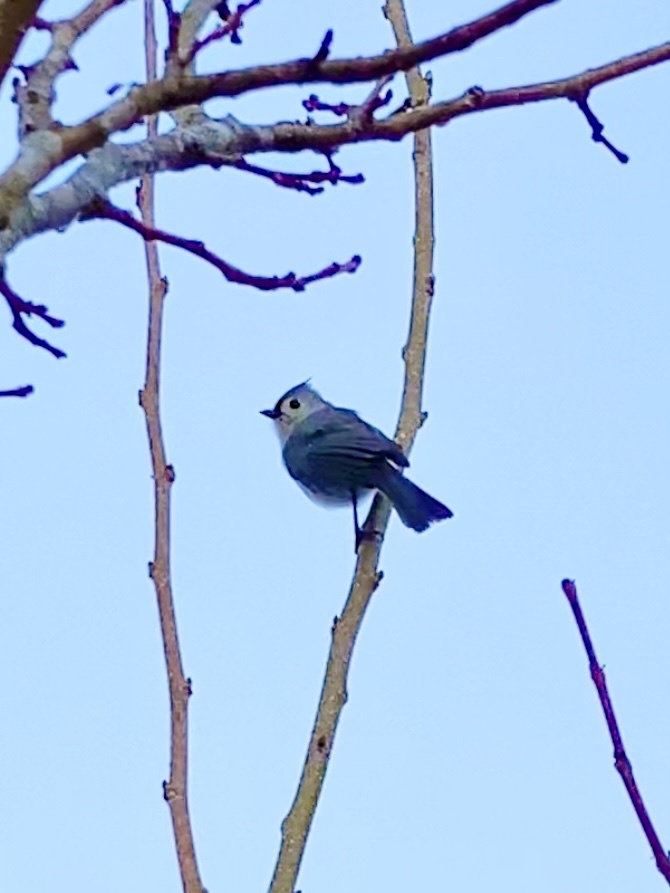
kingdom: Animalia
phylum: Chordata
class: Aves
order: Passeriformes
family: Paridae
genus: Baeolophus
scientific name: Baeolophus bicolor
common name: Tufted titmouse
